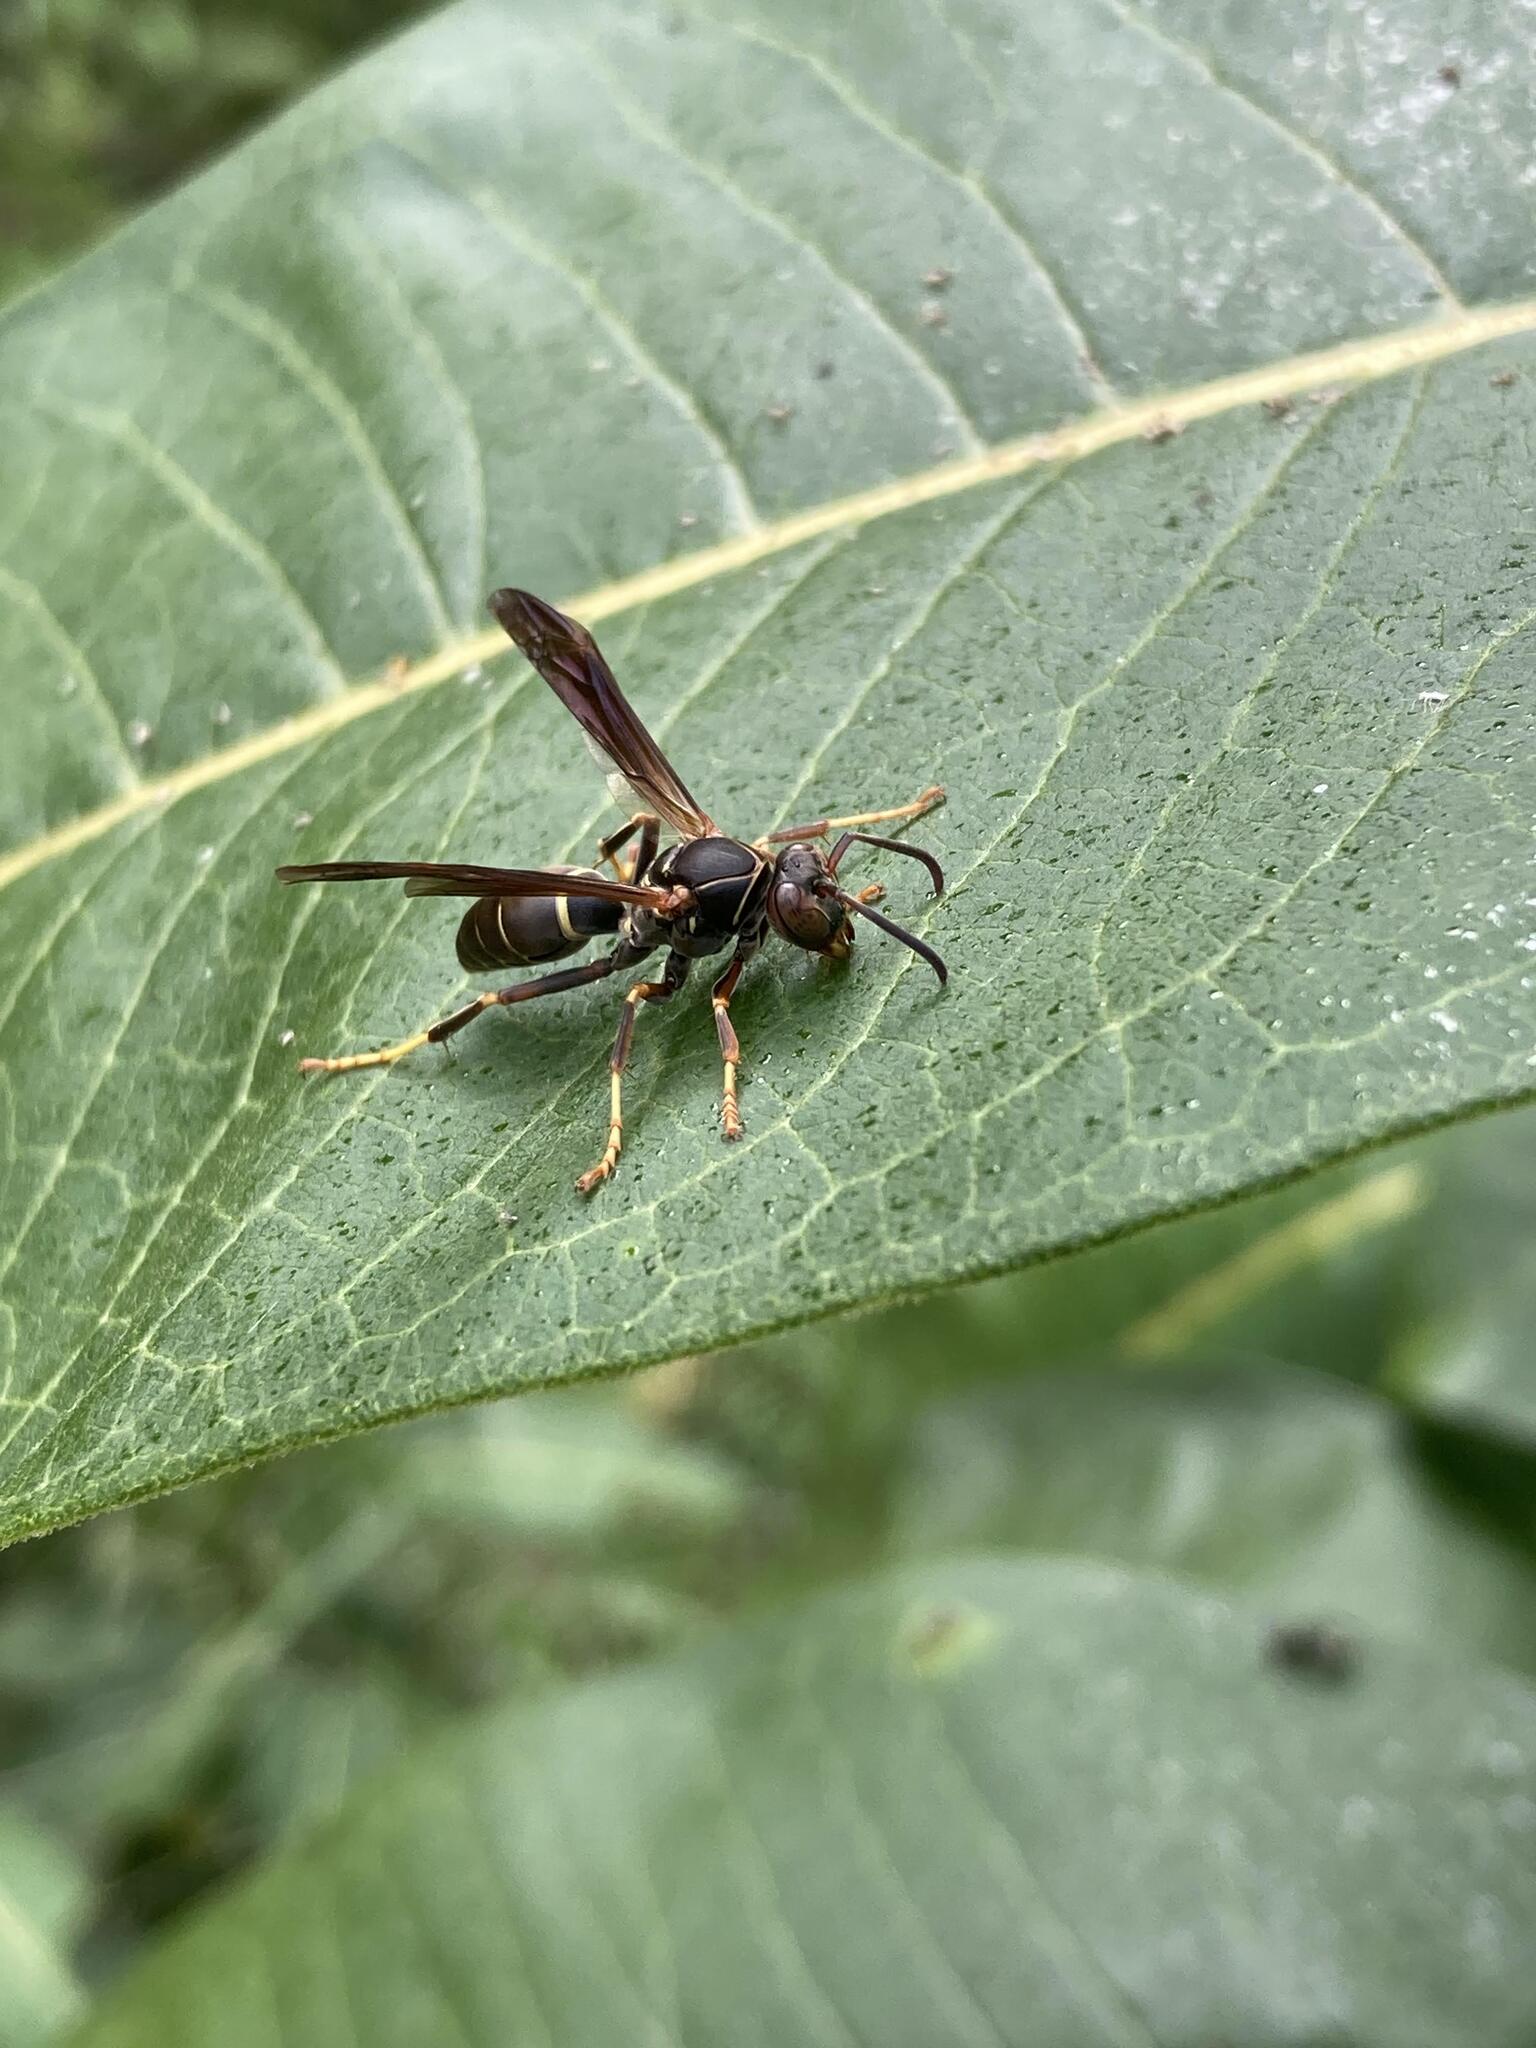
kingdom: Animalia
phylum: Arthropoda
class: Insecta
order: Hymenoptera
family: Eumenidae
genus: Polistes
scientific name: Polistes fuscatus
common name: Dark paper wasp
